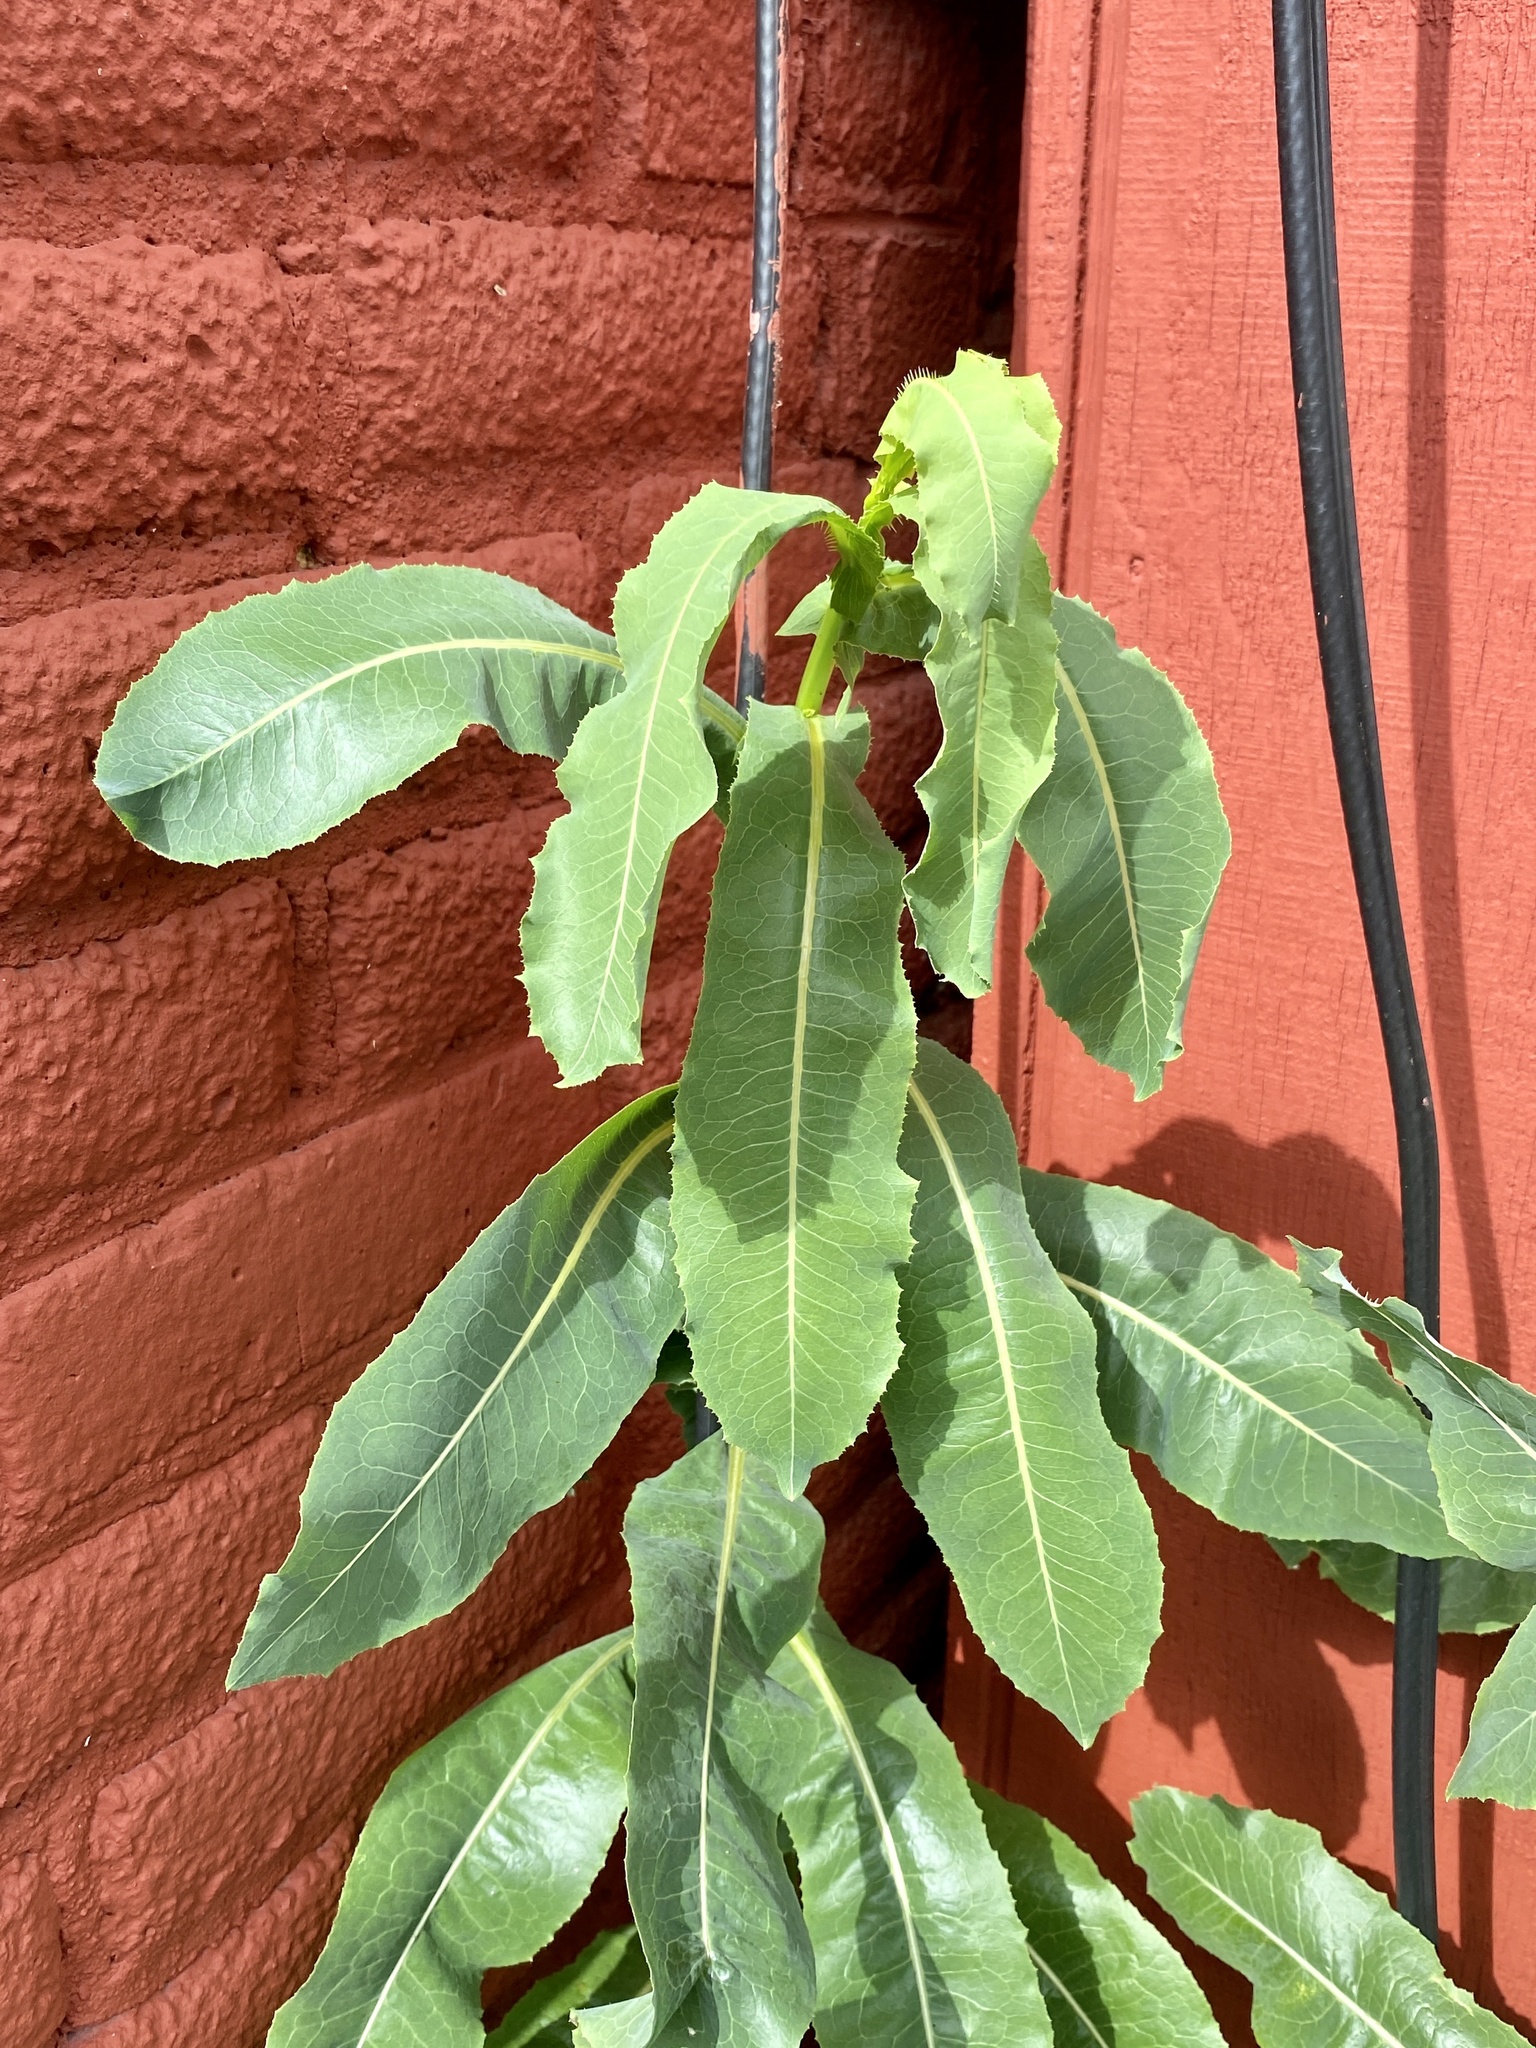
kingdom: Plantae
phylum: Tracheophyta
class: Magnoliopsida
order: Asterales
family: Asteraceae
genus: Lactuca
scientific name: Lactuca serriola
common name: Prickly lettuce
